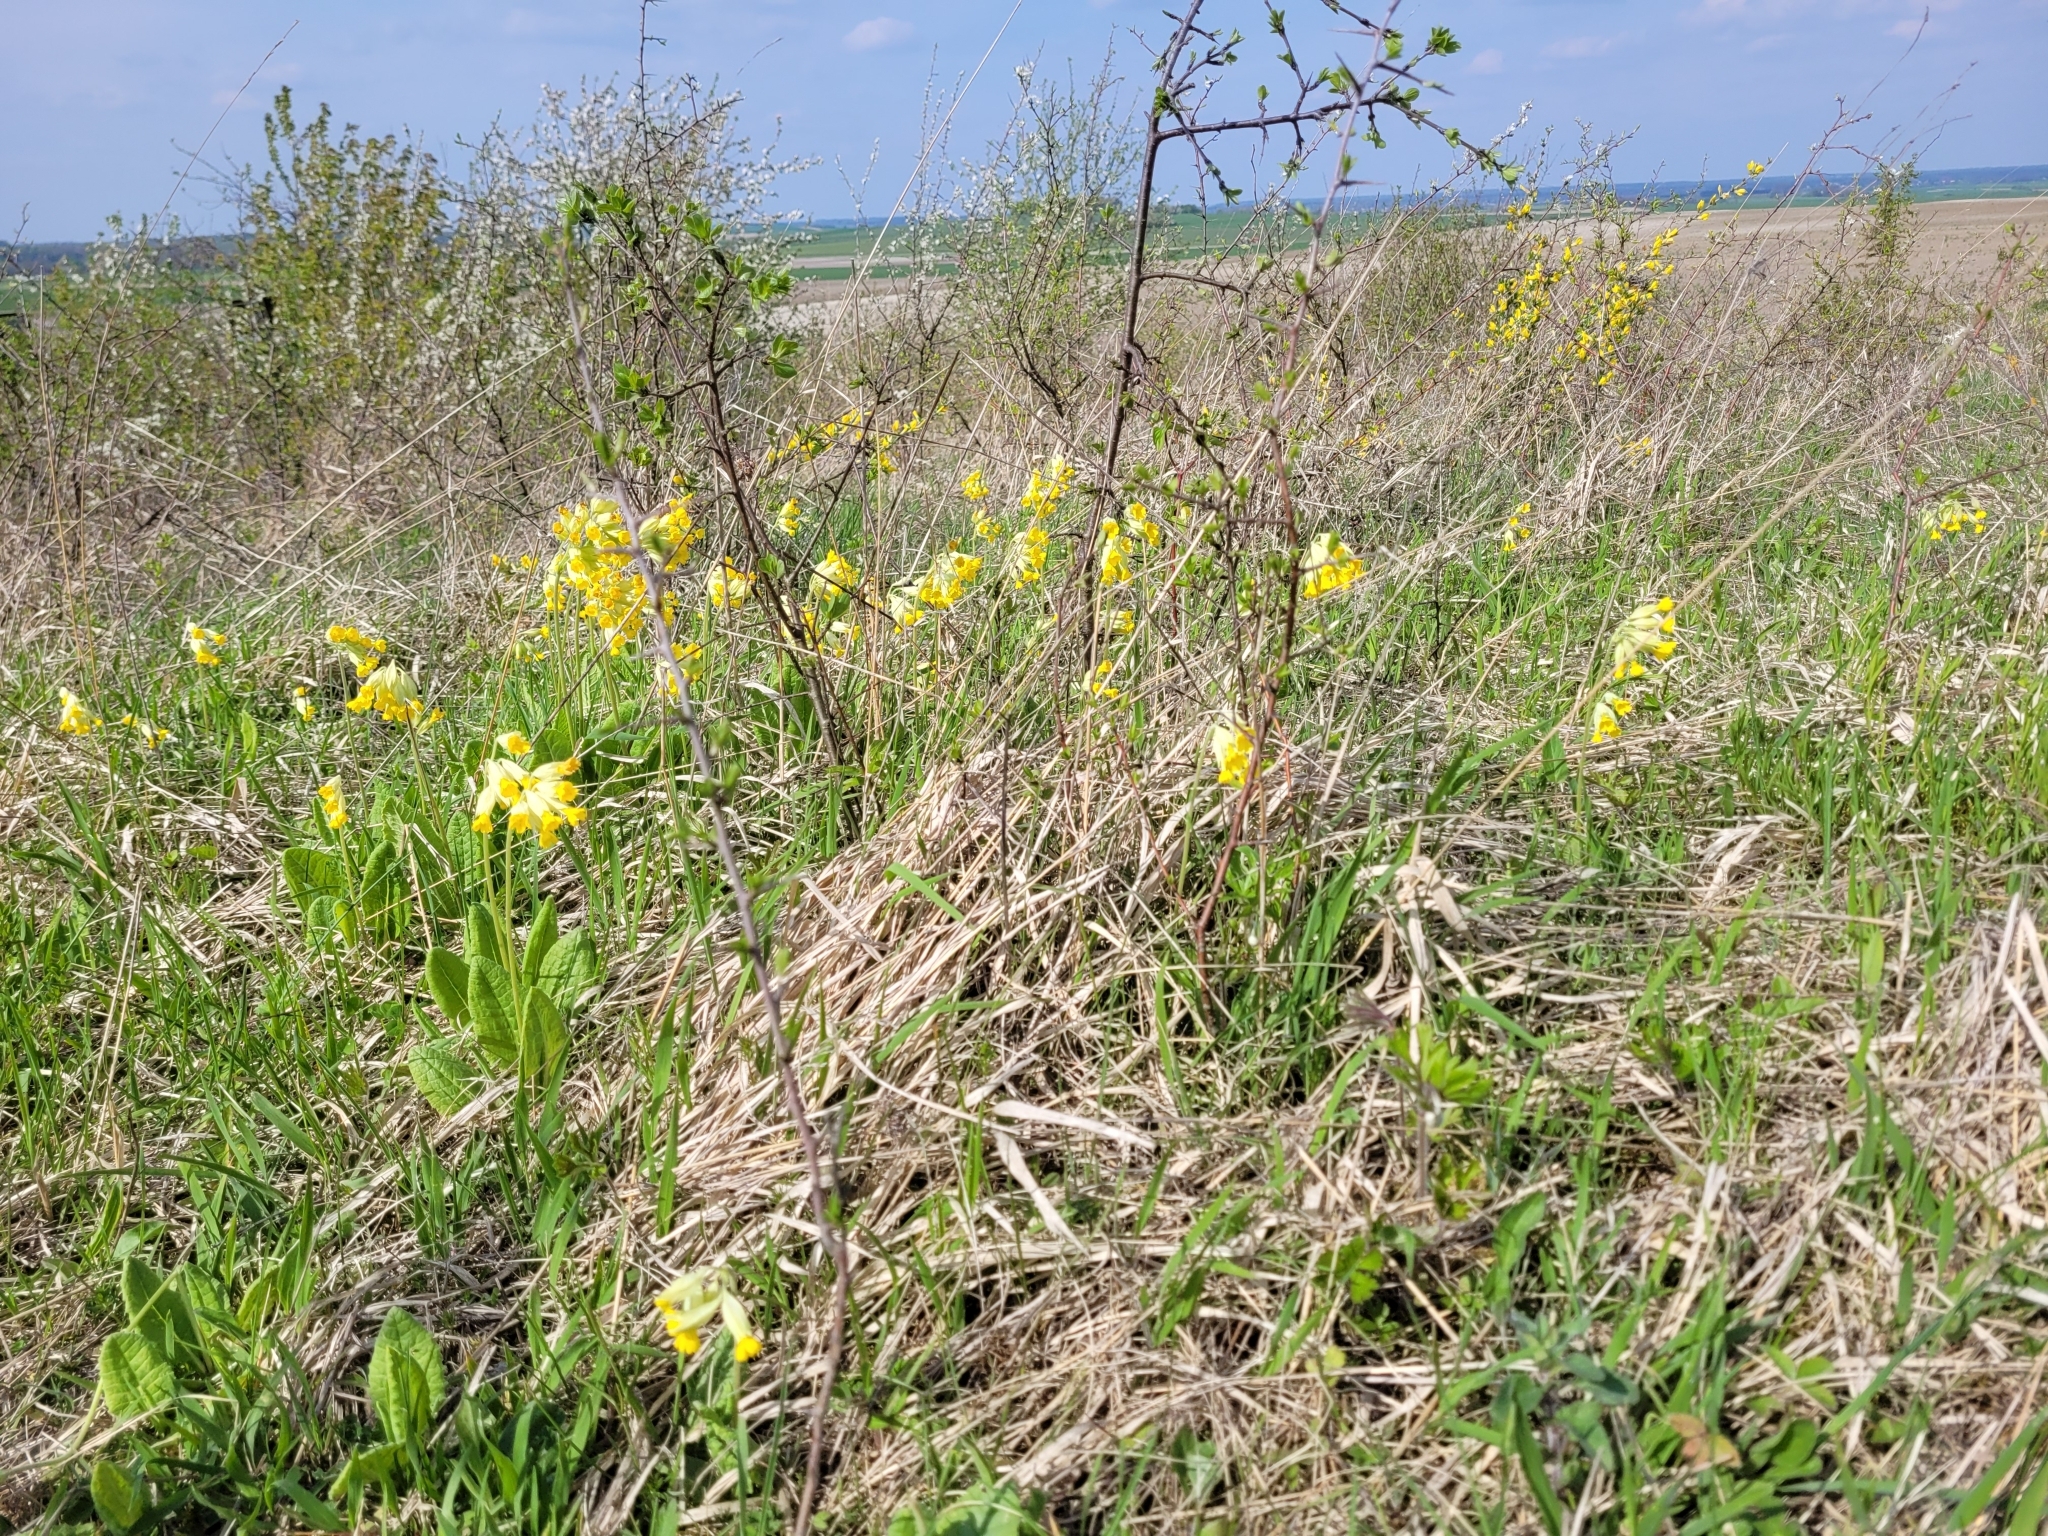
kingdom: Plantae
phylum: Tracheophyta
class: Magnoliopsida
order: Ericales
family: Primulaceae
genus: Primula
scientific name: Primula veris
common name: Cowslip
